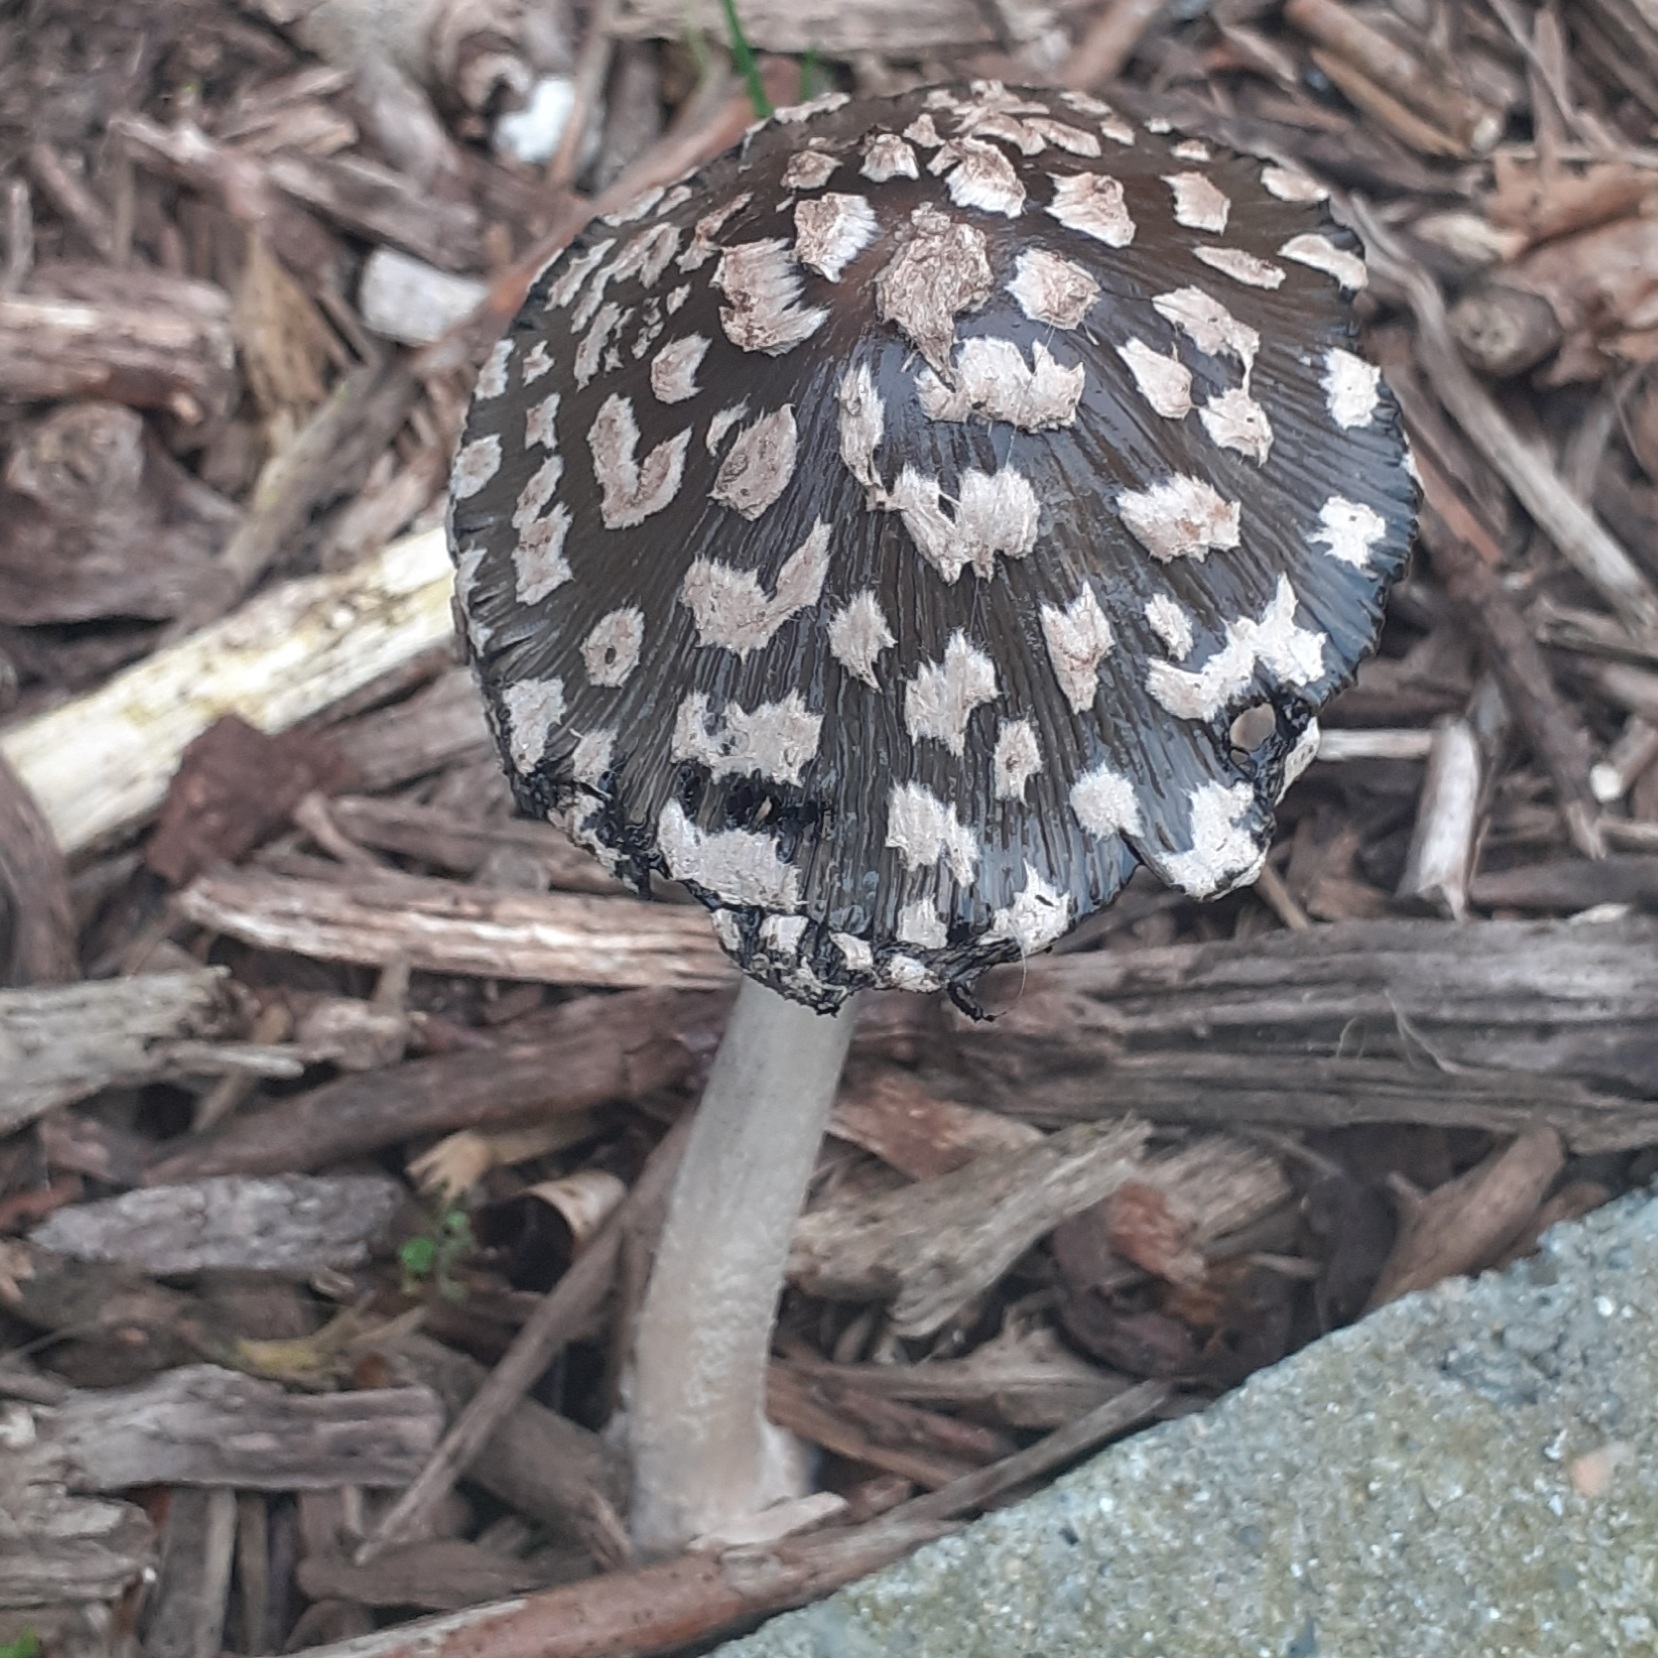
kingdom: Fungi
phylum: Basidiomycota
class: Agaricomycetes
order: Agaricales
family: Psathyrellaceae
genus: Coprinopsis
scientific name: Coprinopsis picacea
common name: Magpie inkcap
